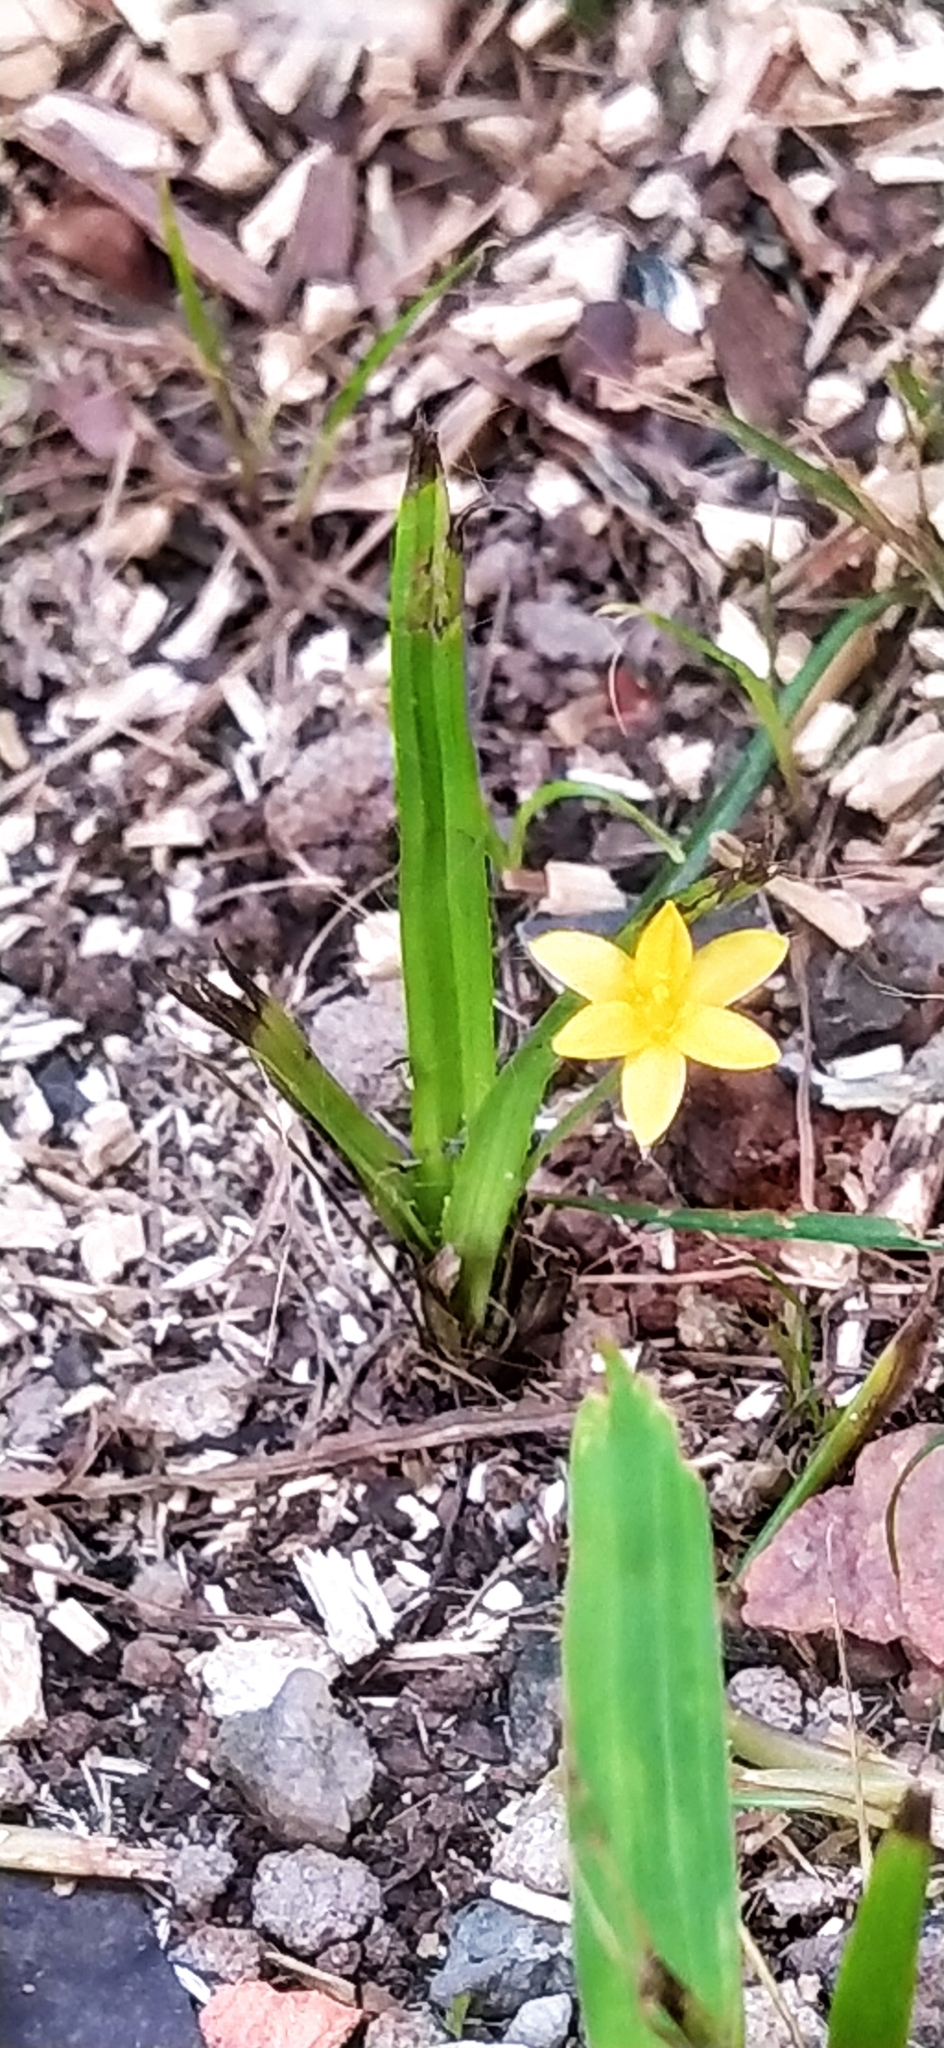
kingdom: Plantae
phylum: Tracheophyta
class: Liliopsida
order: Asparagales
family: Hypoxidaceae
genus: Hypoxis
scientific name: Hypoxis decumbens
